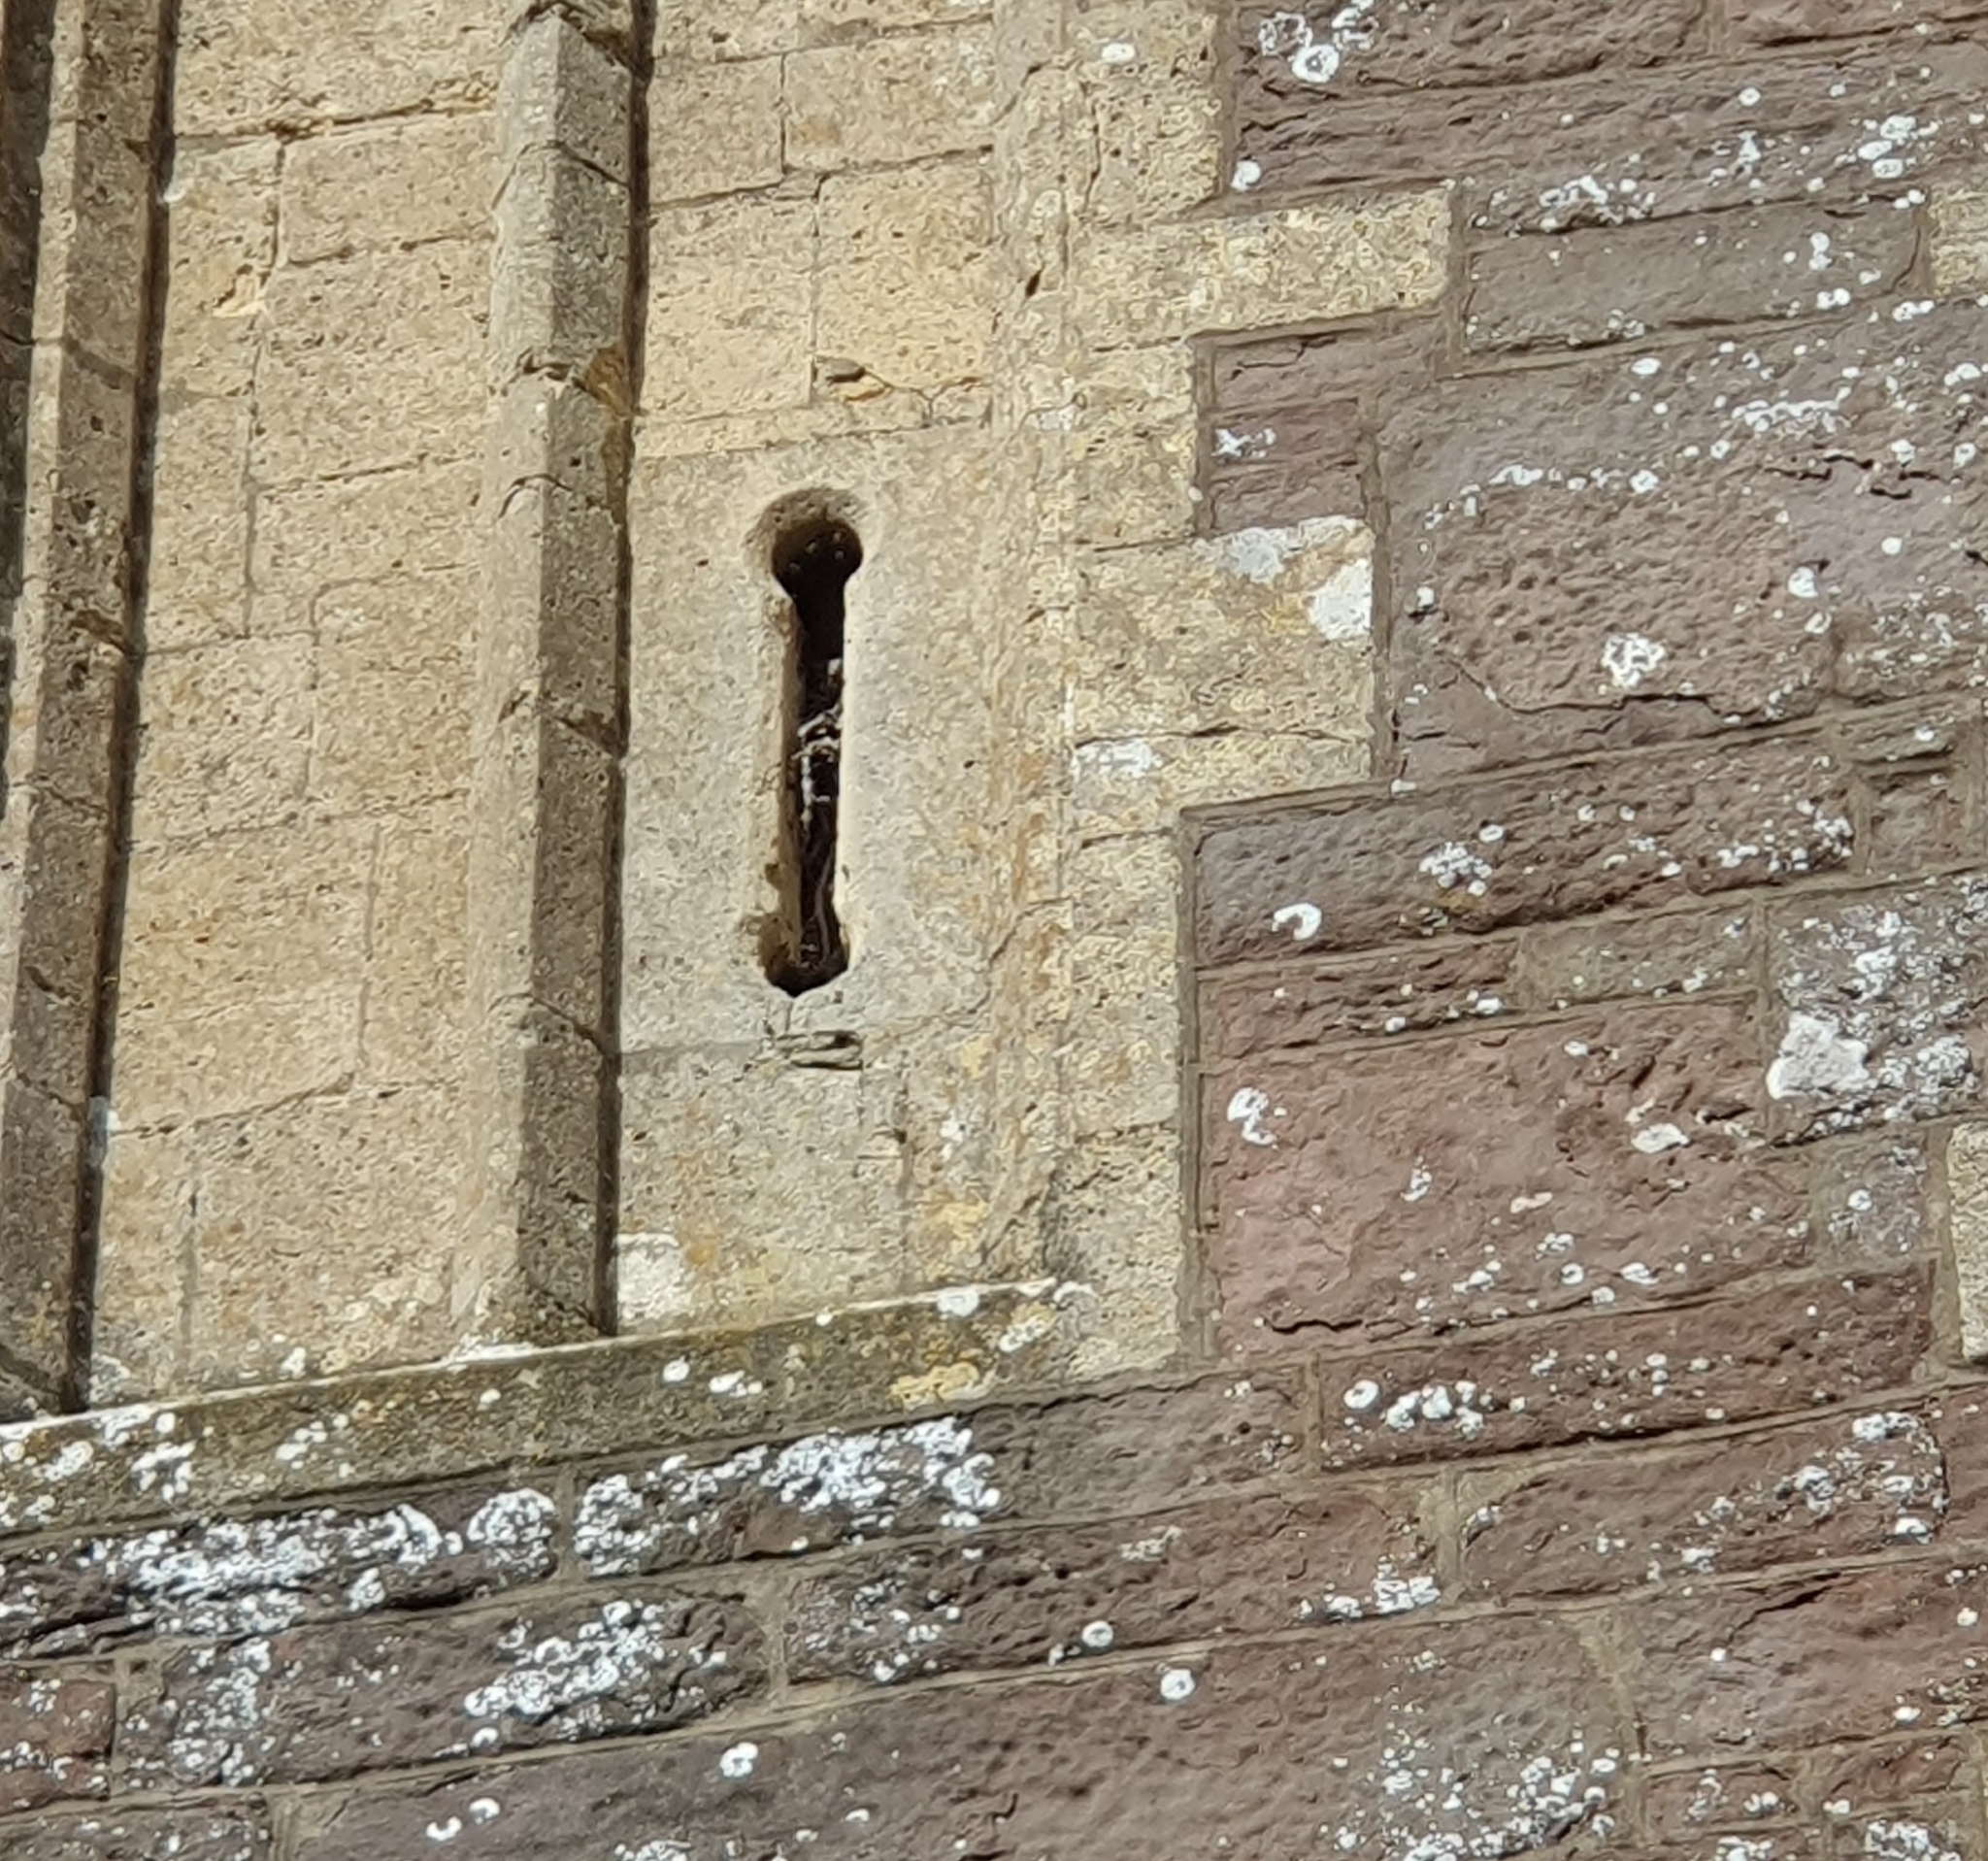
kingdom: Animalia
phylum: Arthropoda
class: Insecta
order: Hymenoptera
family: Apidae
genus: Apis
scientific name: Apis mellifera
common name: Honey bee
